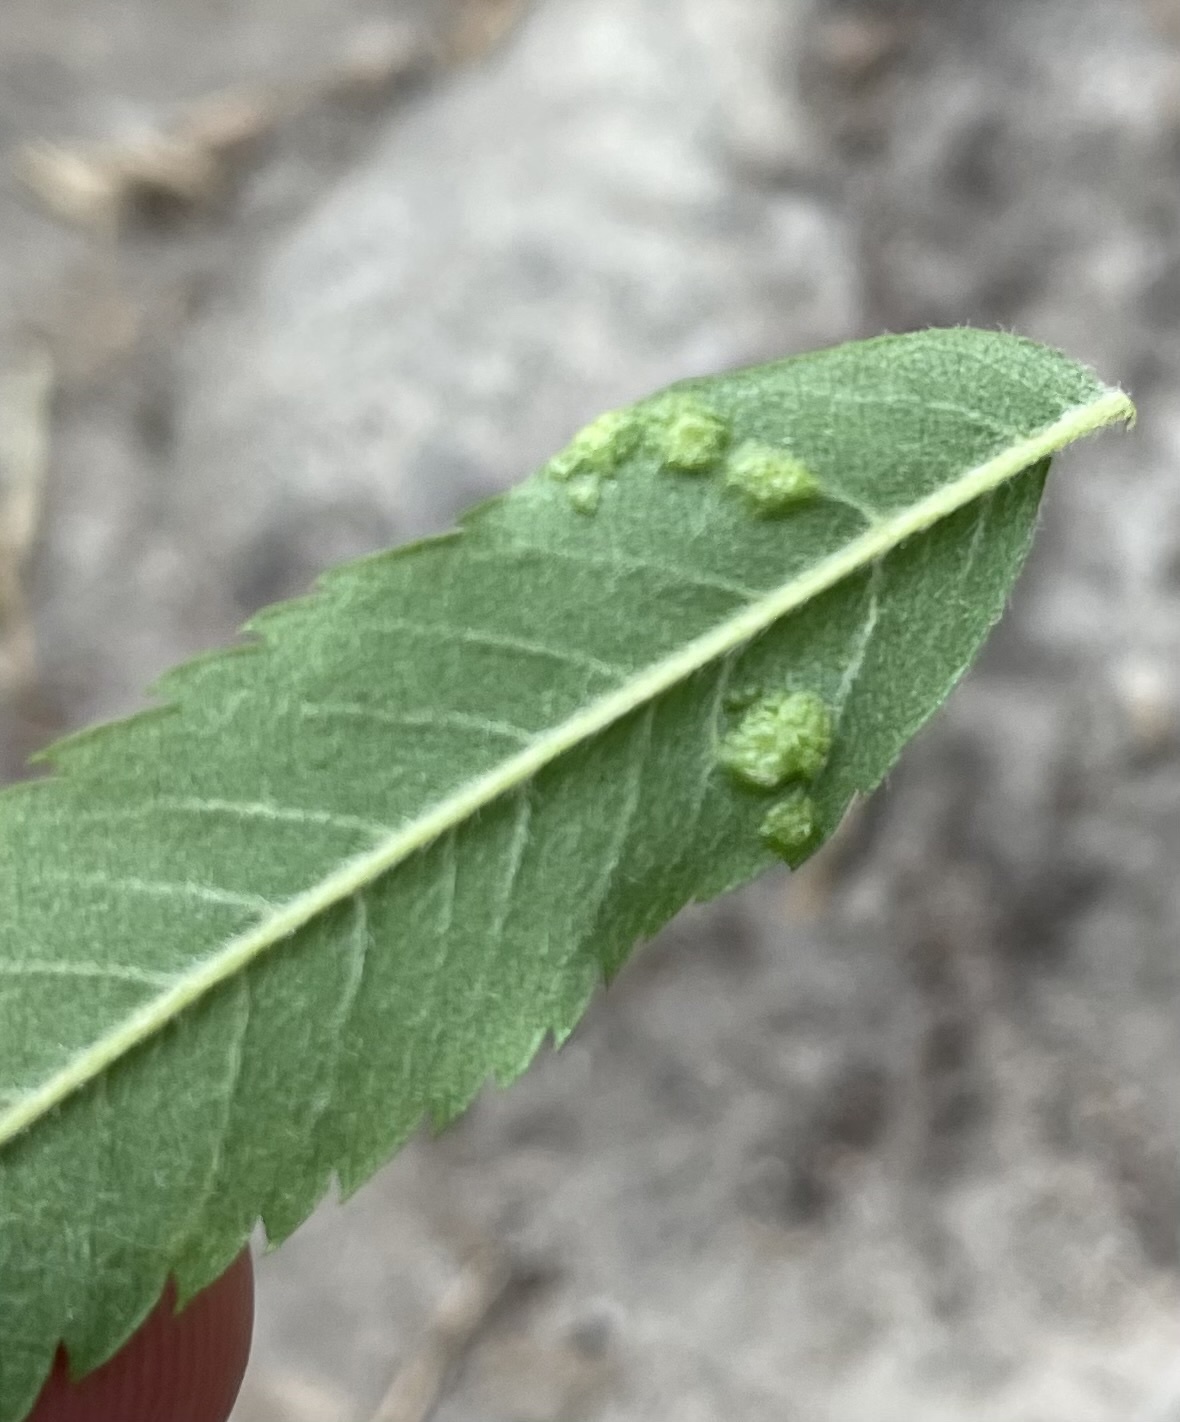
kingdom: Animalia
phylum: Arthropoda
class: Arachnida
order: Trombidiformes
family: Eriophyidae
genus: Eriophyes
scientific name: Eriophyes sorbi
